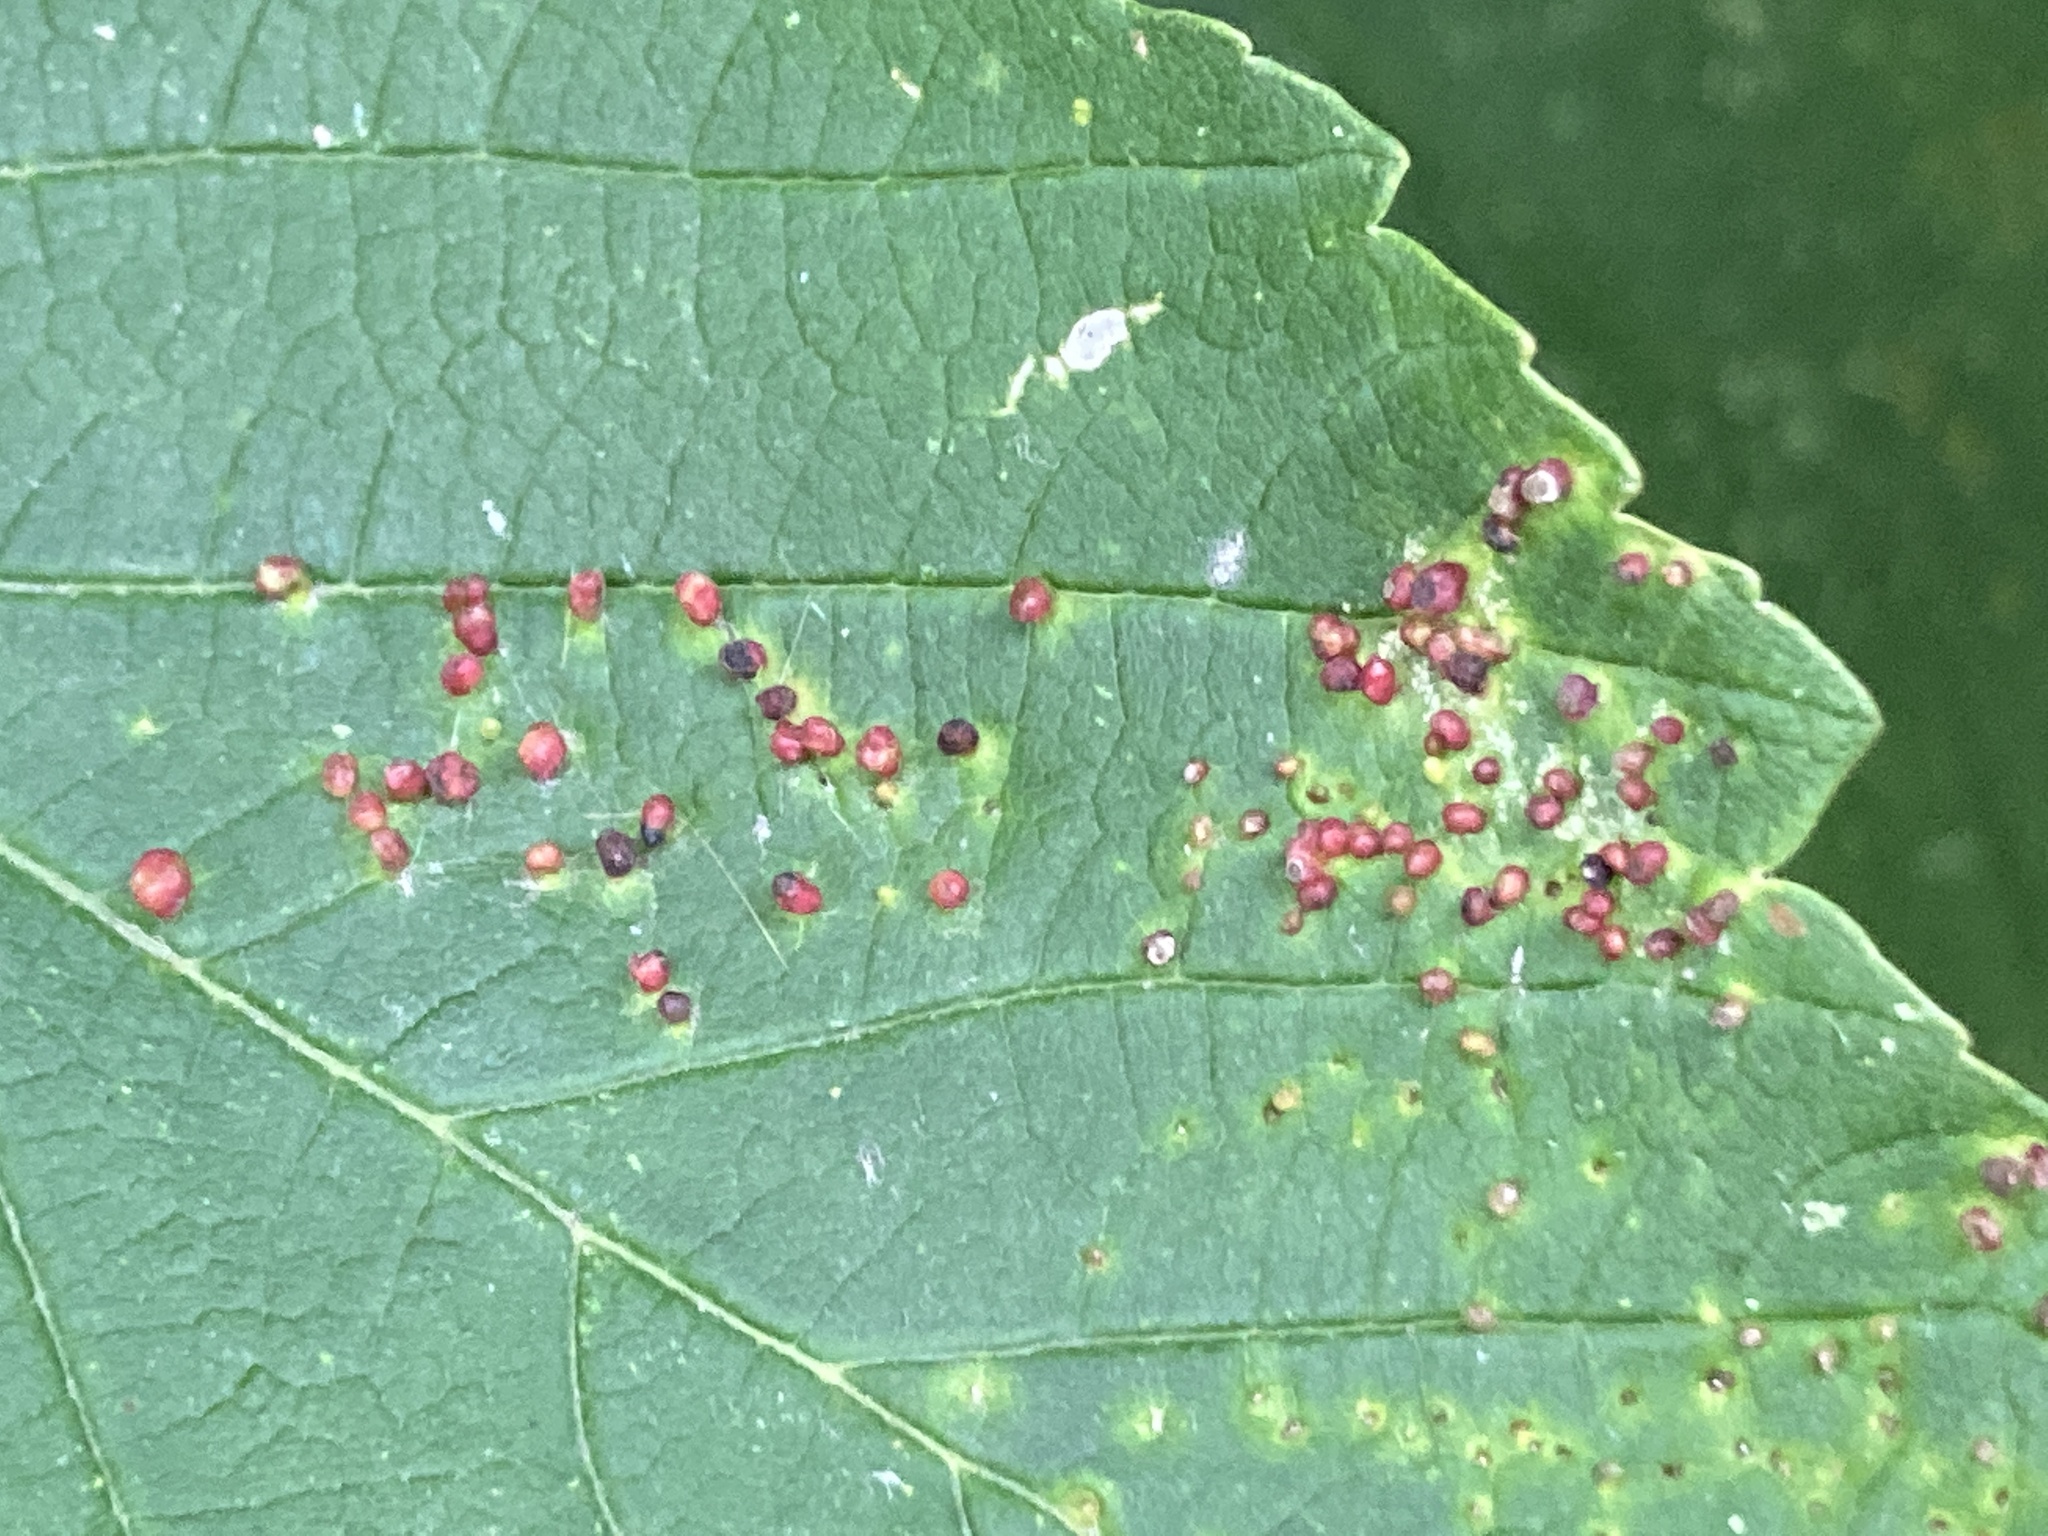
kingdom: Animalia
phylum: Arthropoda
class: Arachnida
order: Trombidiformes
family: Eriophyidae
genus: Aceria
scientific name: Aceria cephaloneus
